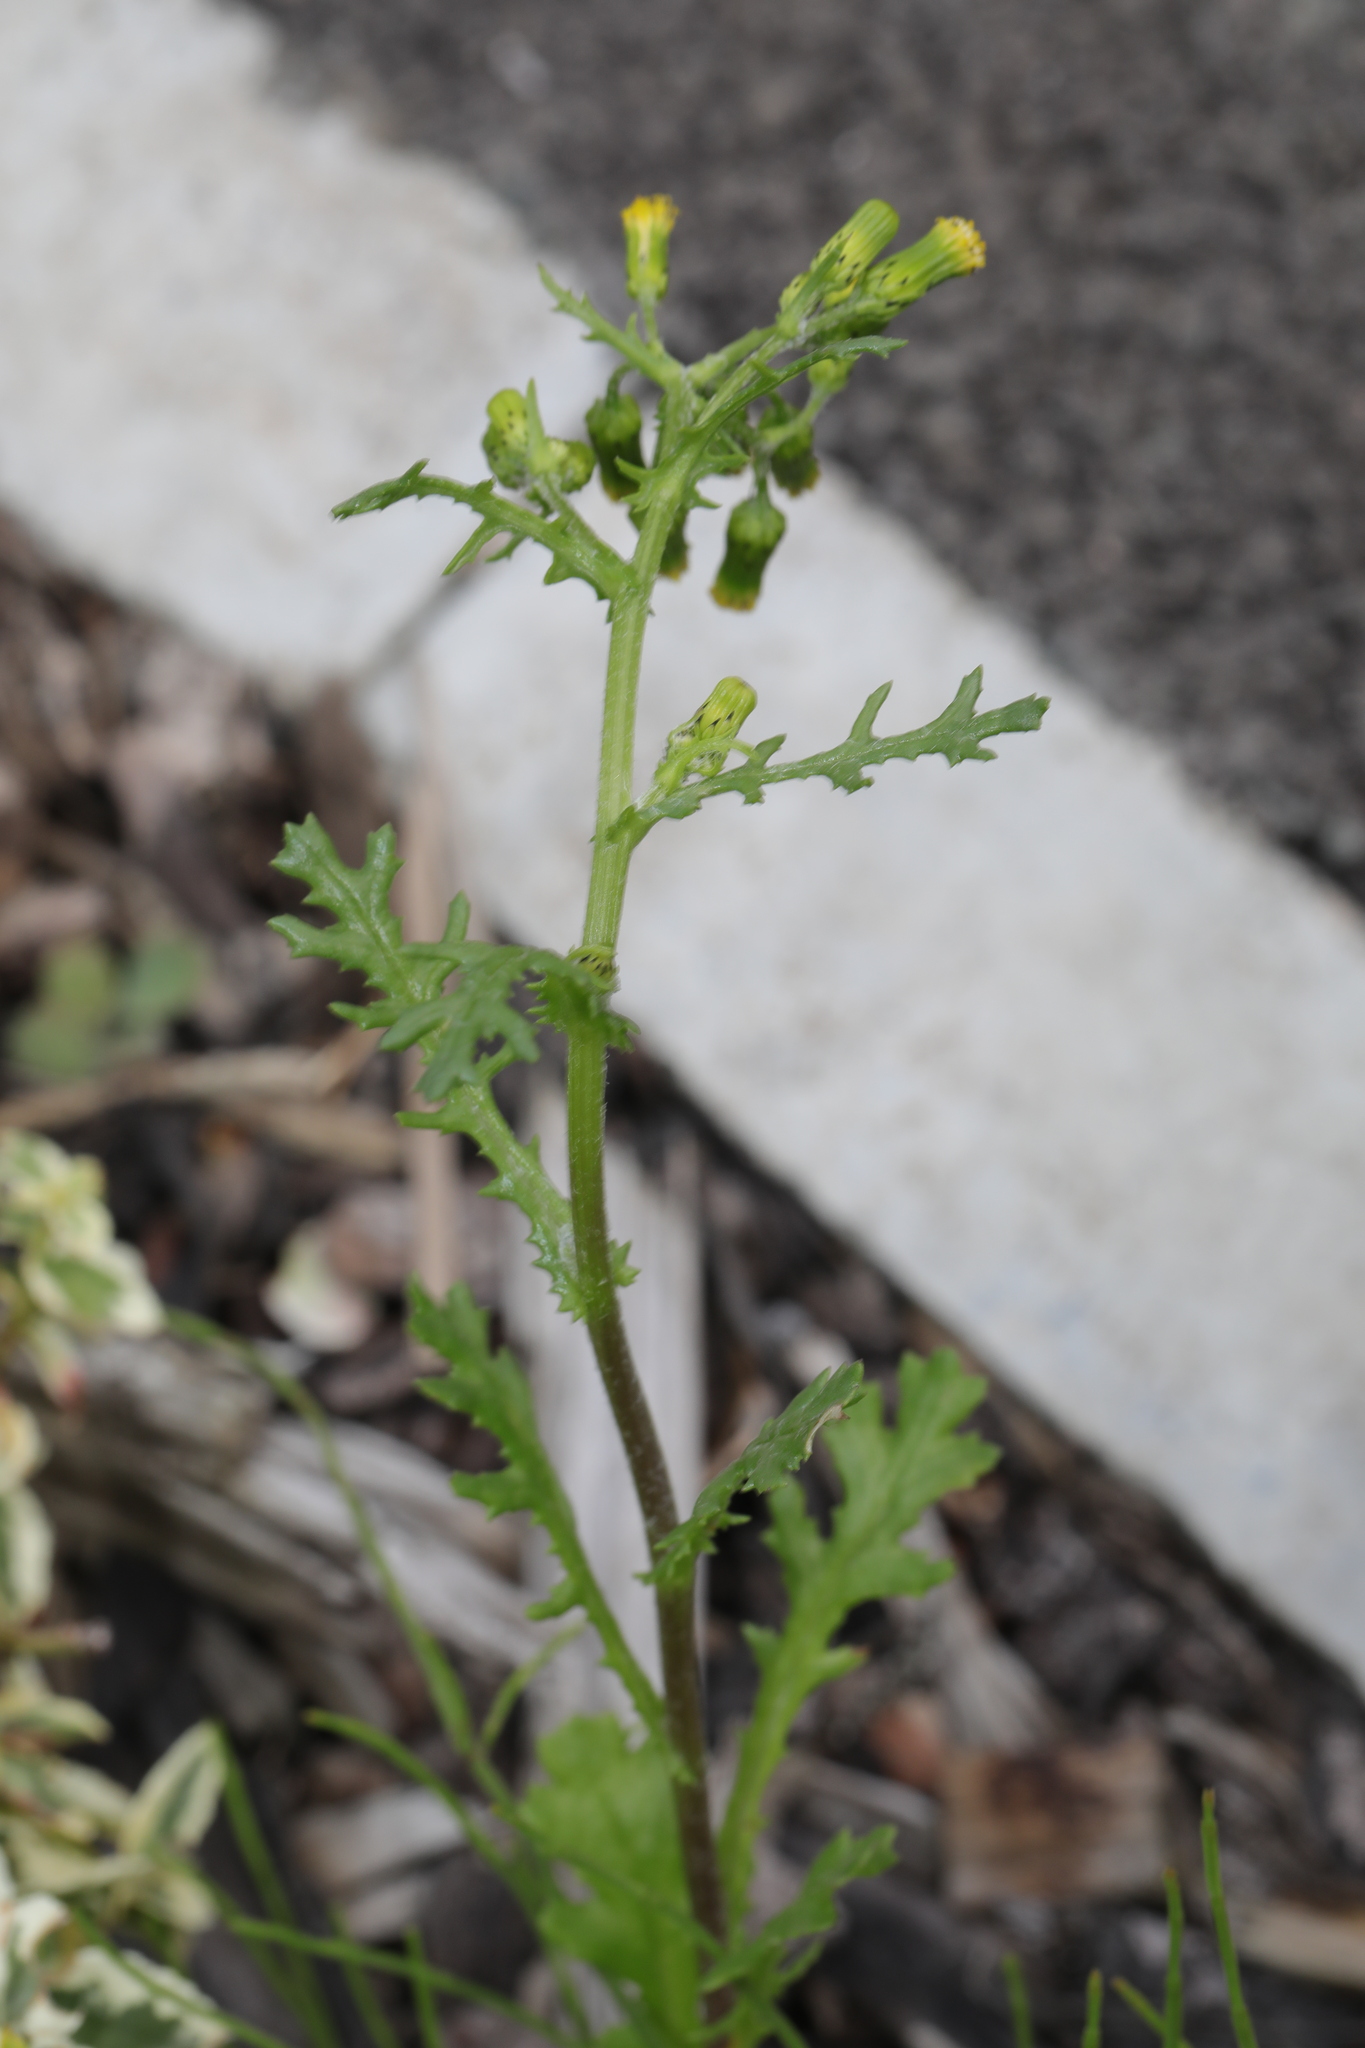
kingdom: Plantae
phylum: Tracheophyta
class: Magnoliopsida
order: Asterales
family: Asteraceae
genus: Senecio
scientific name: Senecio vulgaris
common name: Old-man-in-the-spring
